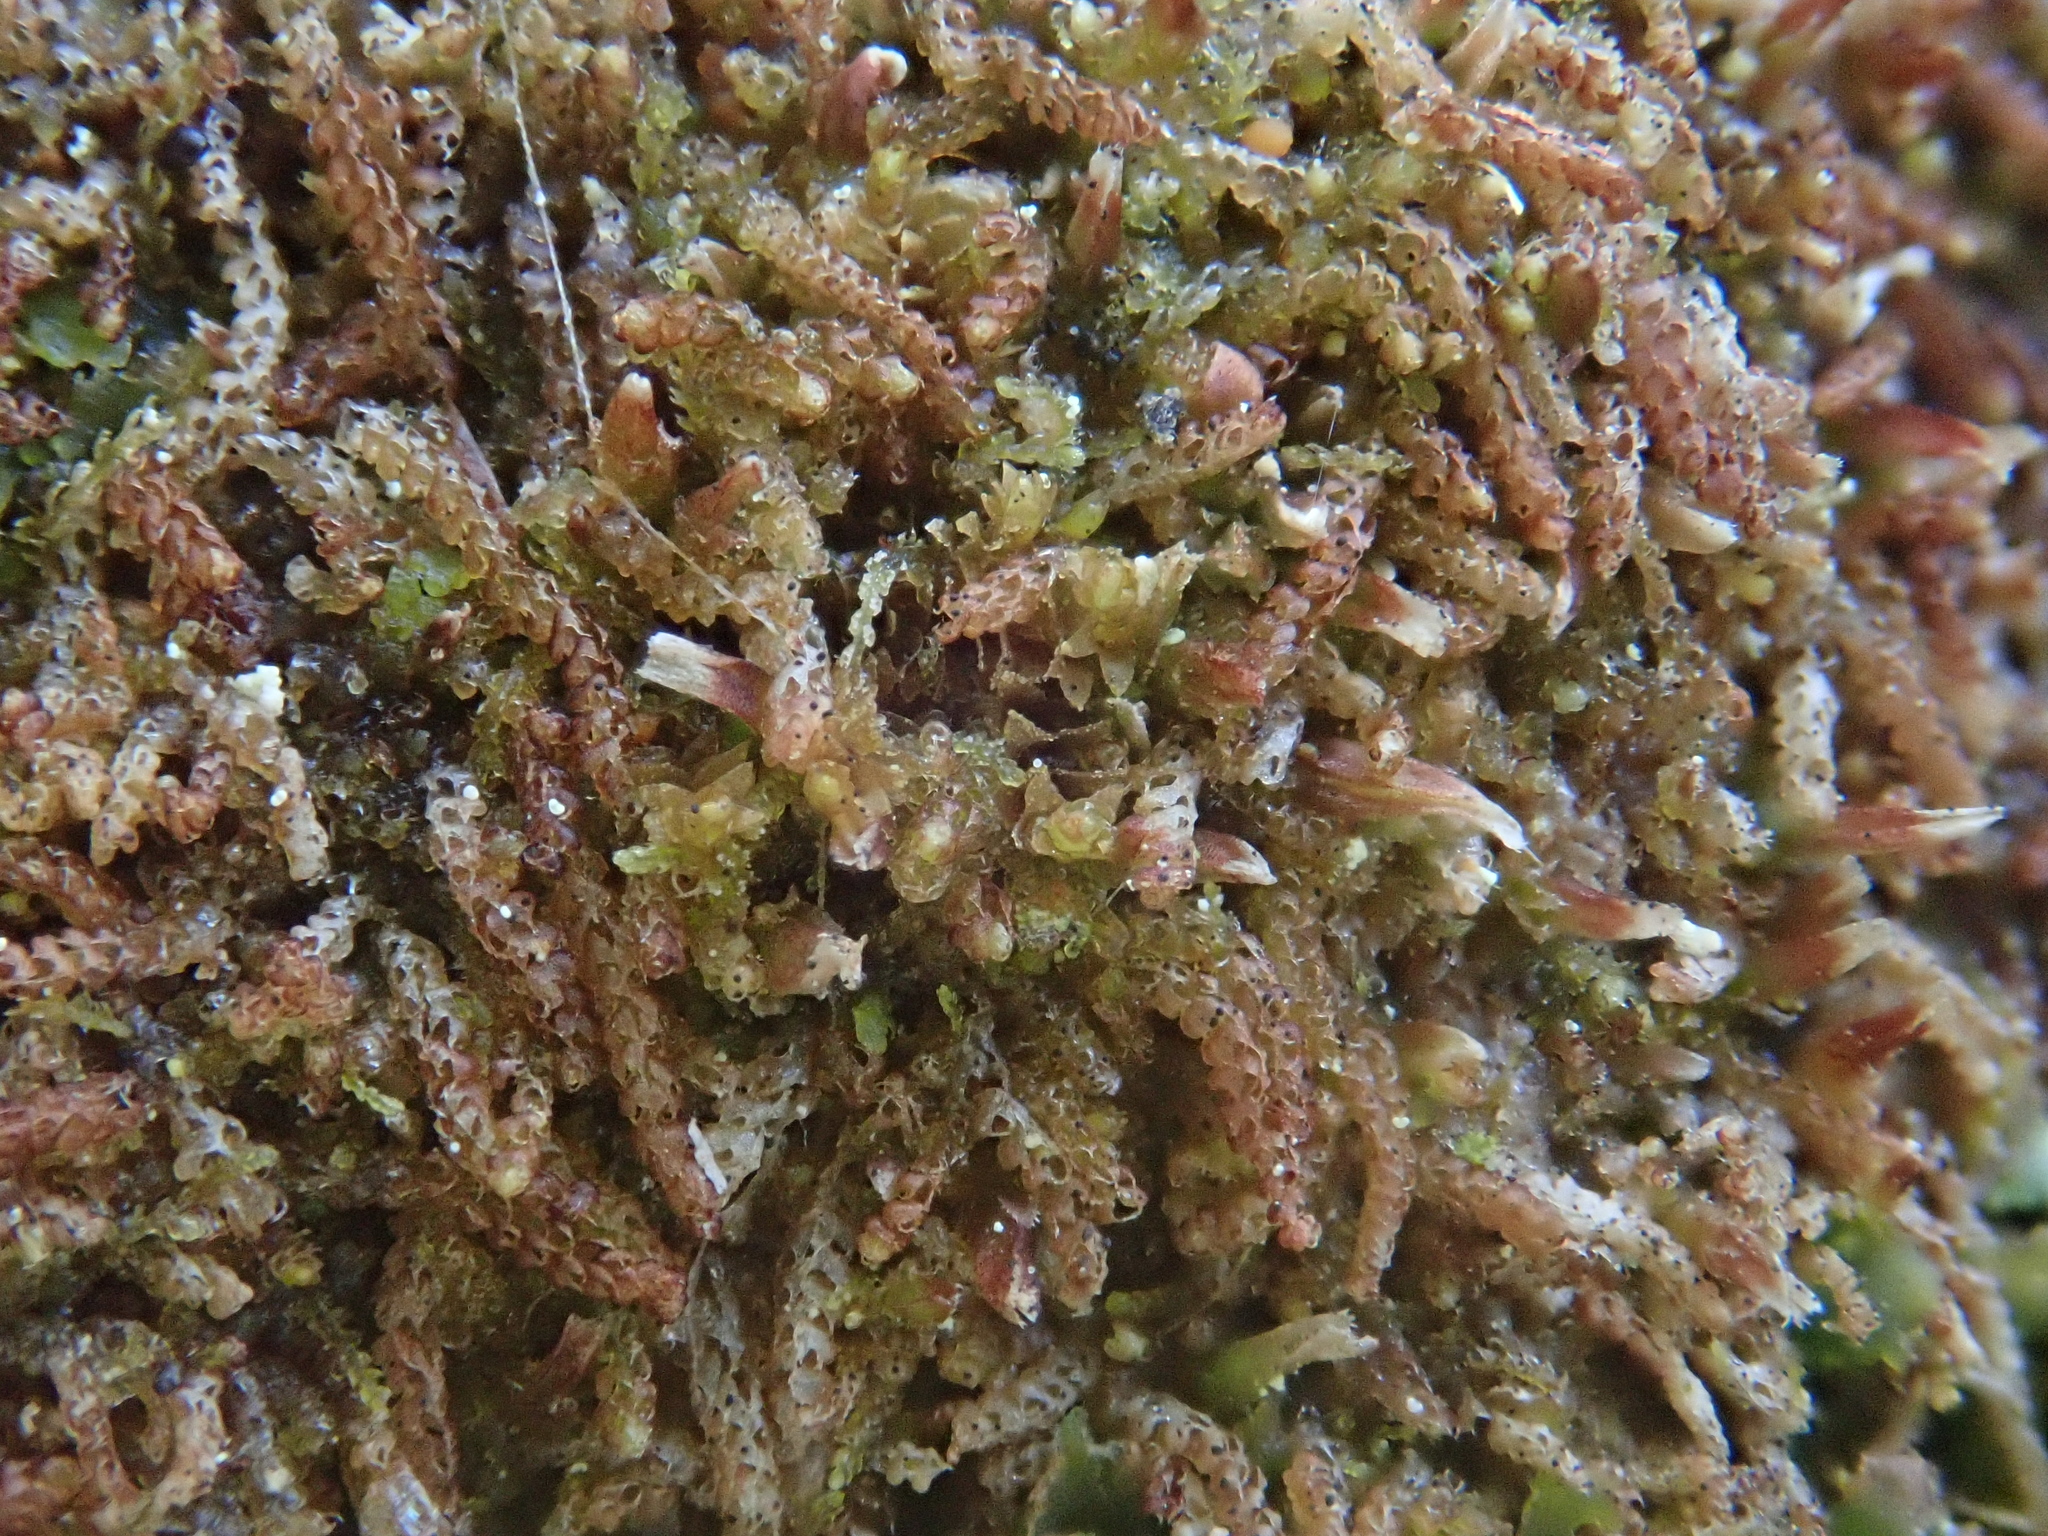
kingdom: Plantae
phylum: Marchantiophyta
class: Jungermanniopsida
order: Jungermanniales
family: Cephaloziaceae
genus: Nowellia
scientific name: Nowellia curvifolia
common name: Wood rustwort
